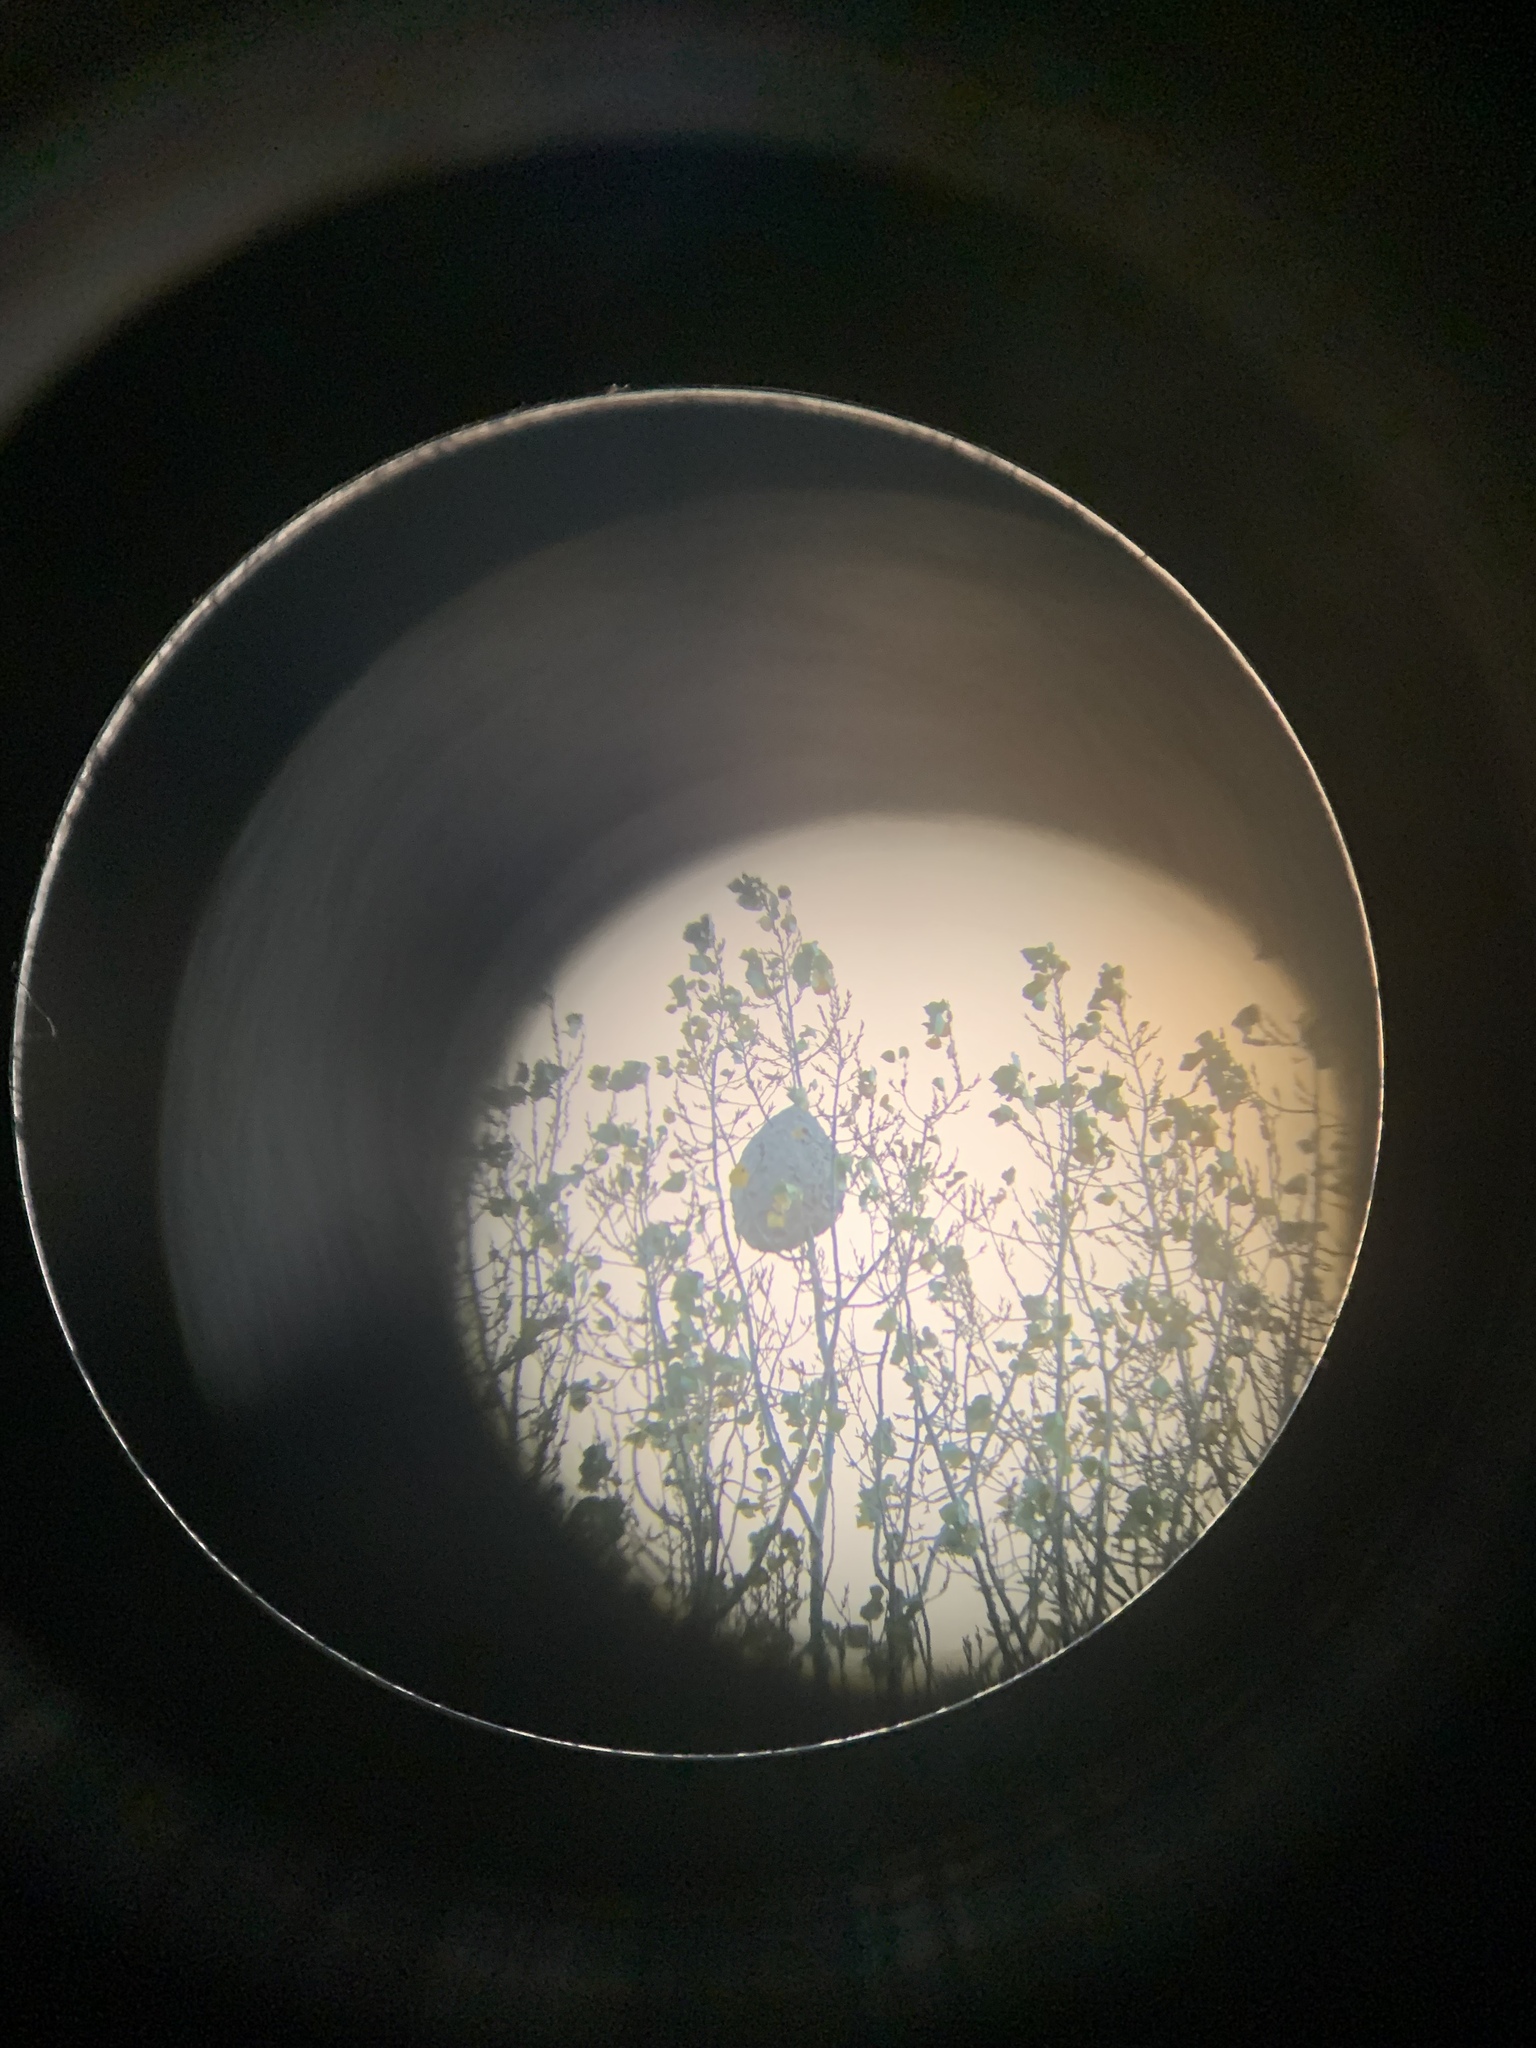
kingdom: Animalia
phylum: Arthropoda
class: Insecta
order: Hymenoptera
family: Vespidae
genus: Vespa
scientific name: Vespa velutina
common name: Asian hornet
